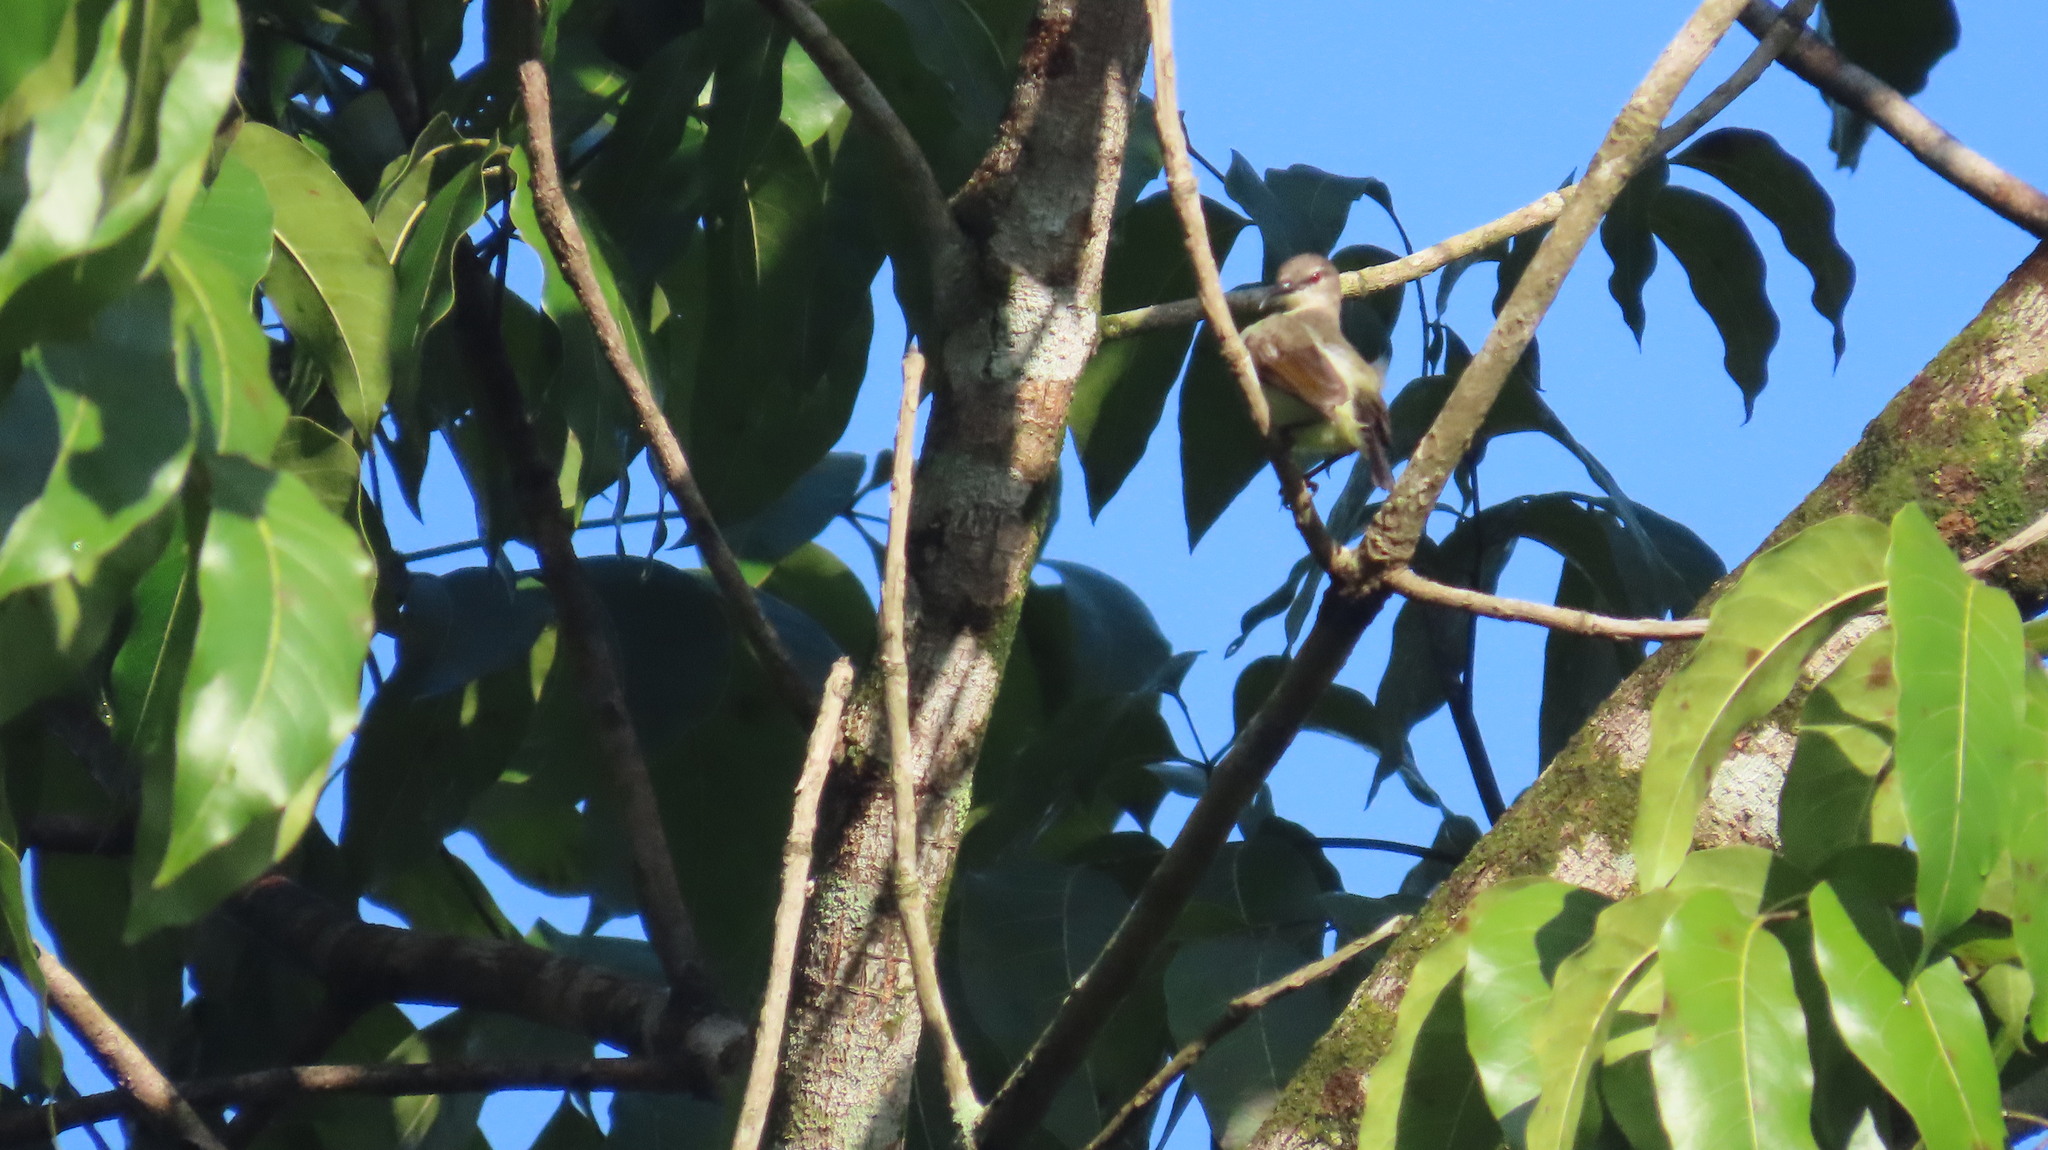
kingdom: Animalia
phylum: Chordata
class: Aves
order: Passeriformes
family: Nectariniidae
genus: Leptocoma
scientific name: Leptocoma zeylonica
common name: Purple-rumped sunbird
